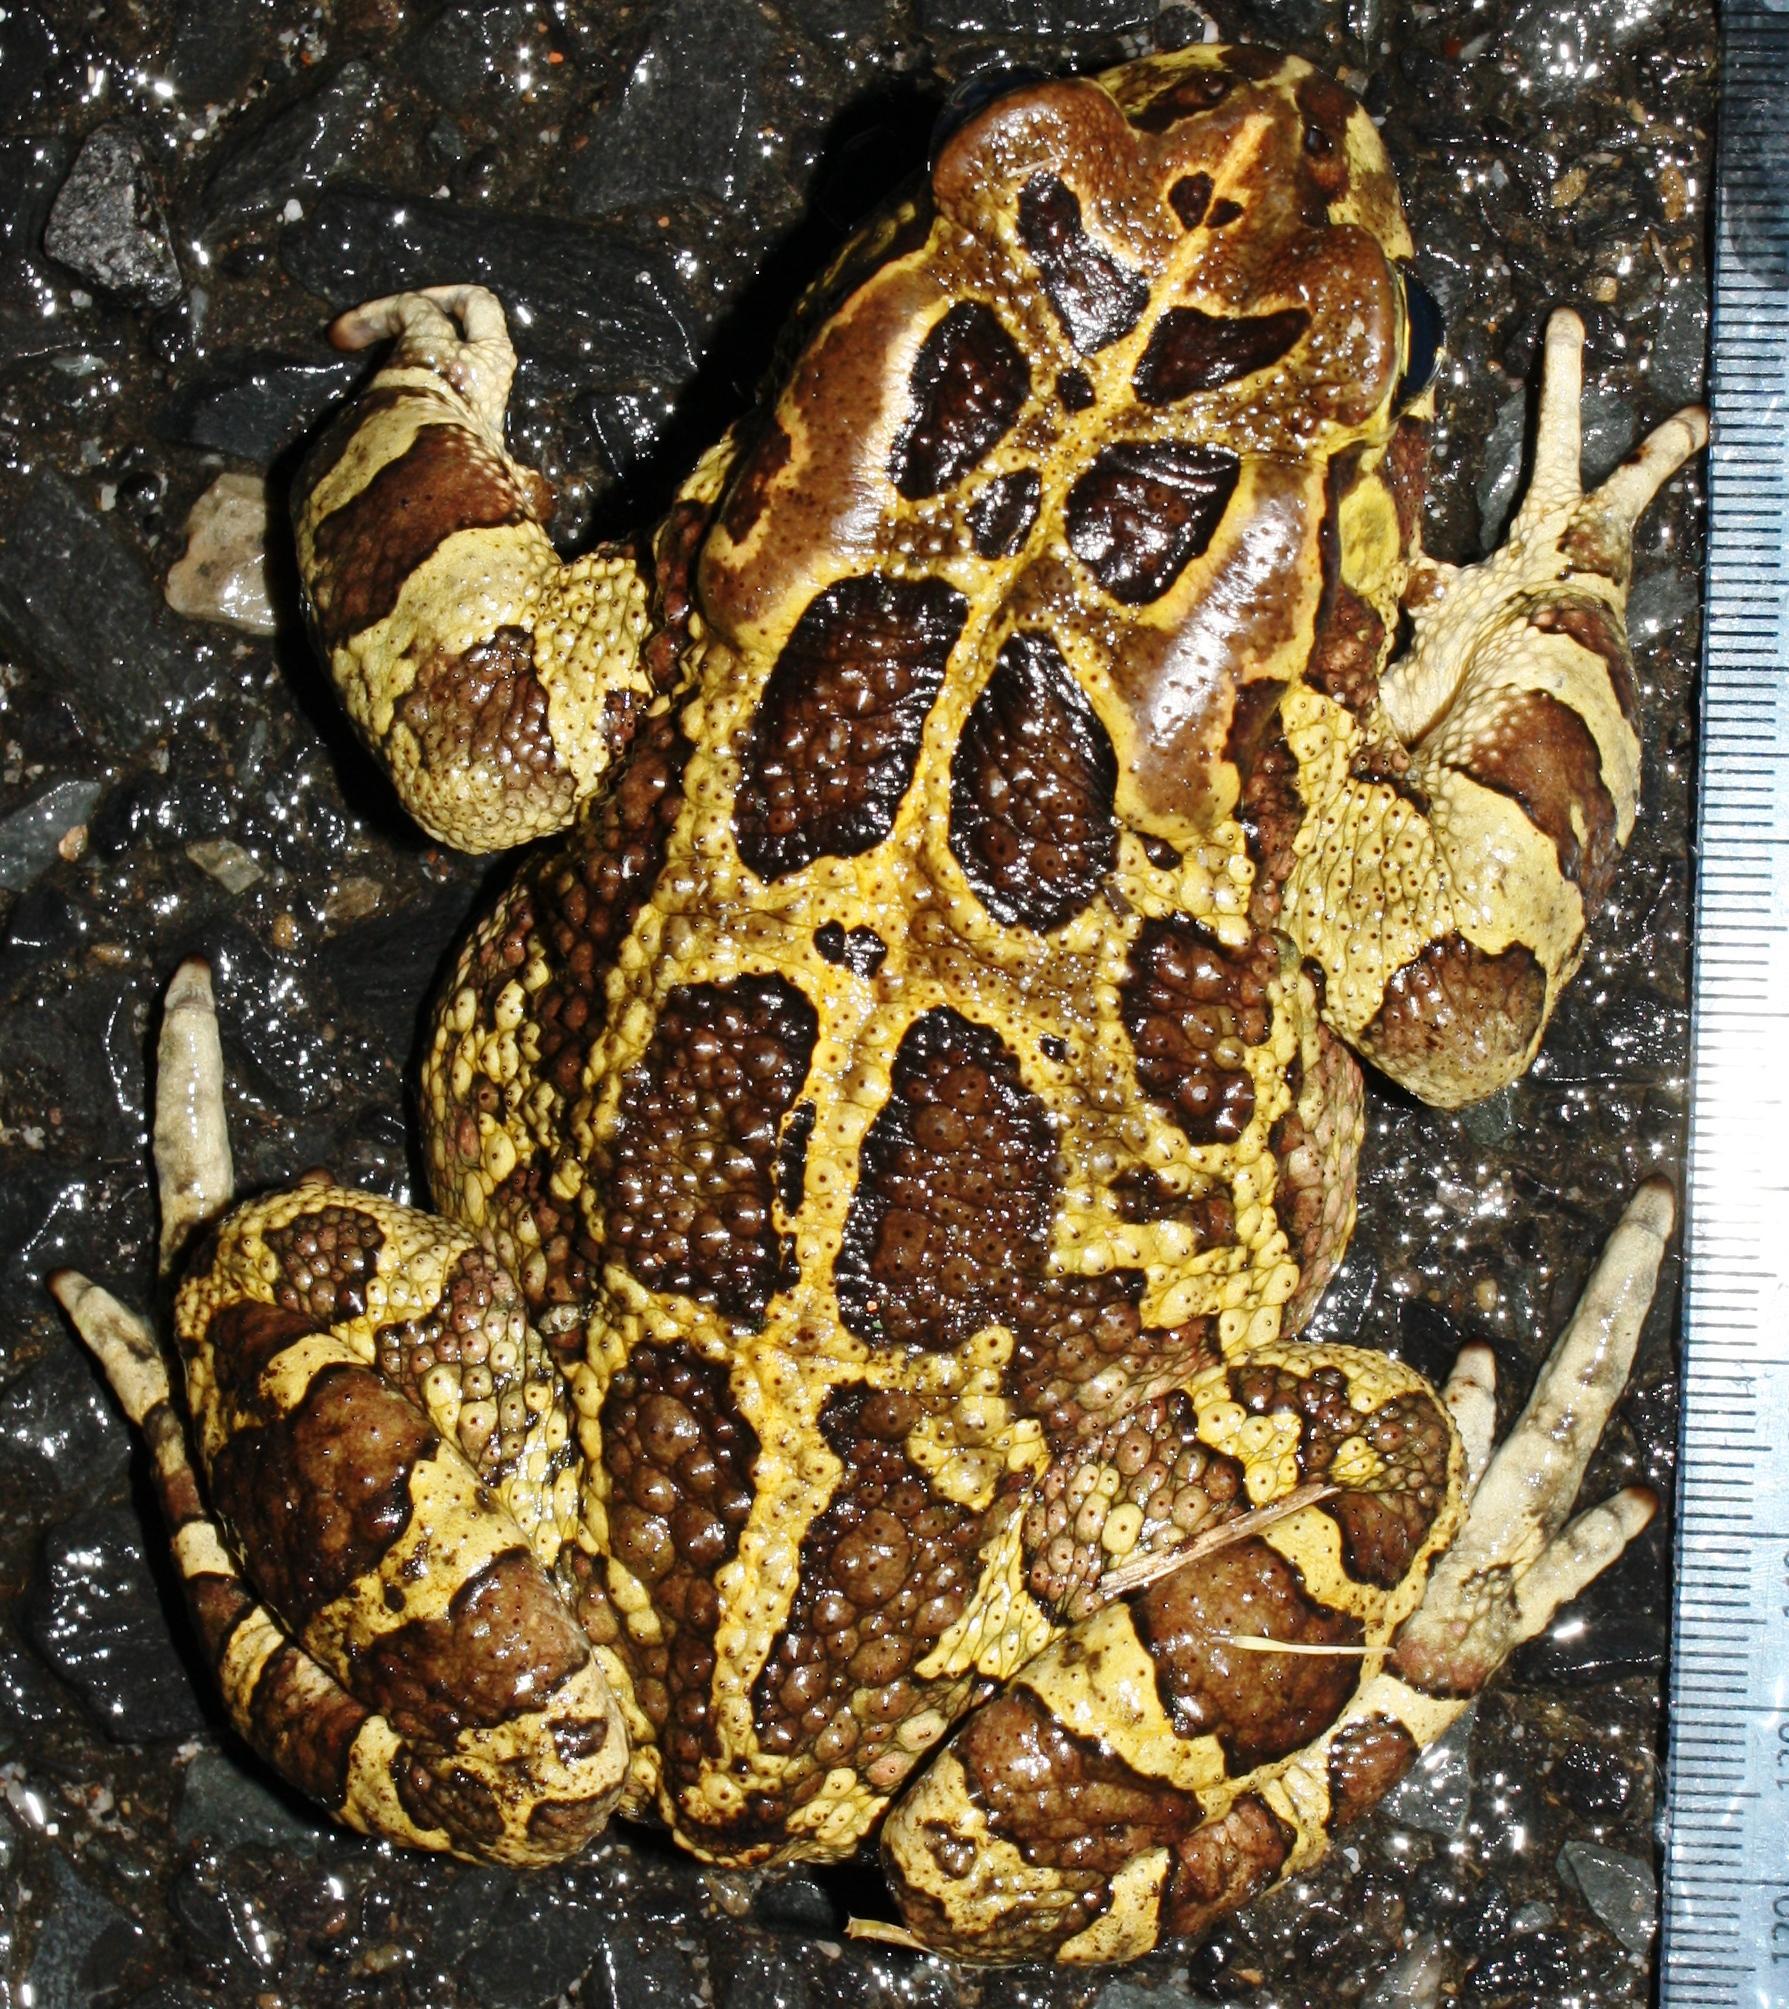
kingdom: Animalia
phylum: Chordata
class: Amphibia
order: Anura
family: Bufonidae
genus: Sclerophrys
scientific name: Sclerophrys pantherina
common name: Panther toad
